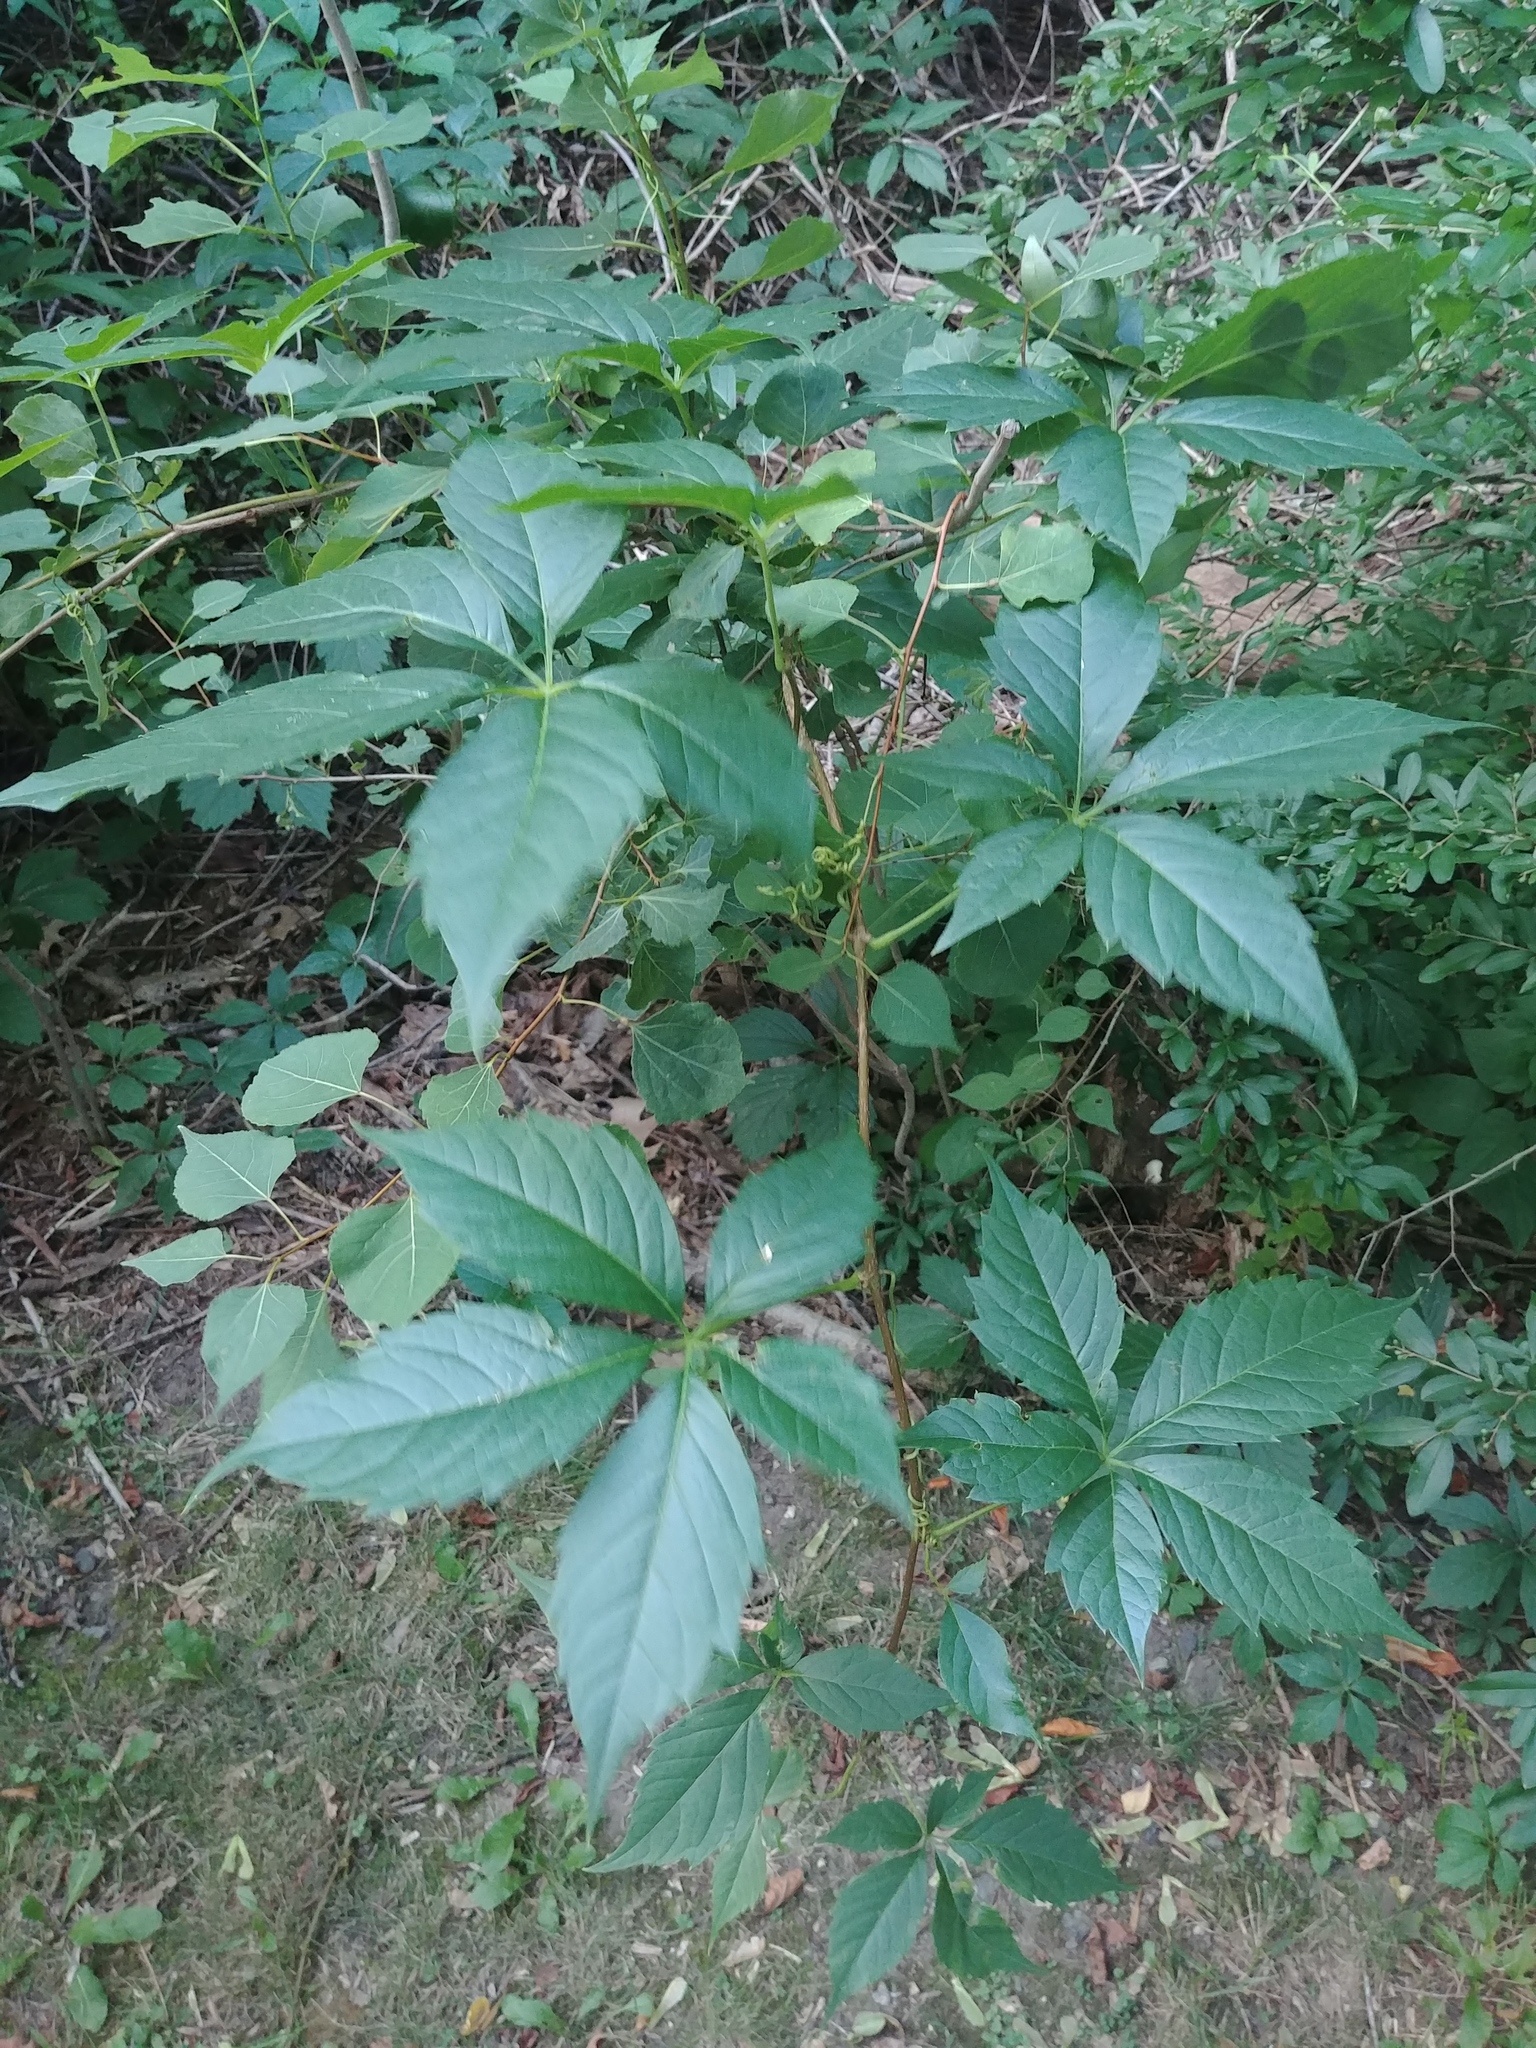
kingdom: Plantae
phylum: Tracheophyta
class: Magnoliopsida
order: Vitales
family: Vitaceae
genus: Parthenocissus
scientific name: Parthenocissus quinquefolia
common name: Virginia-creeper
